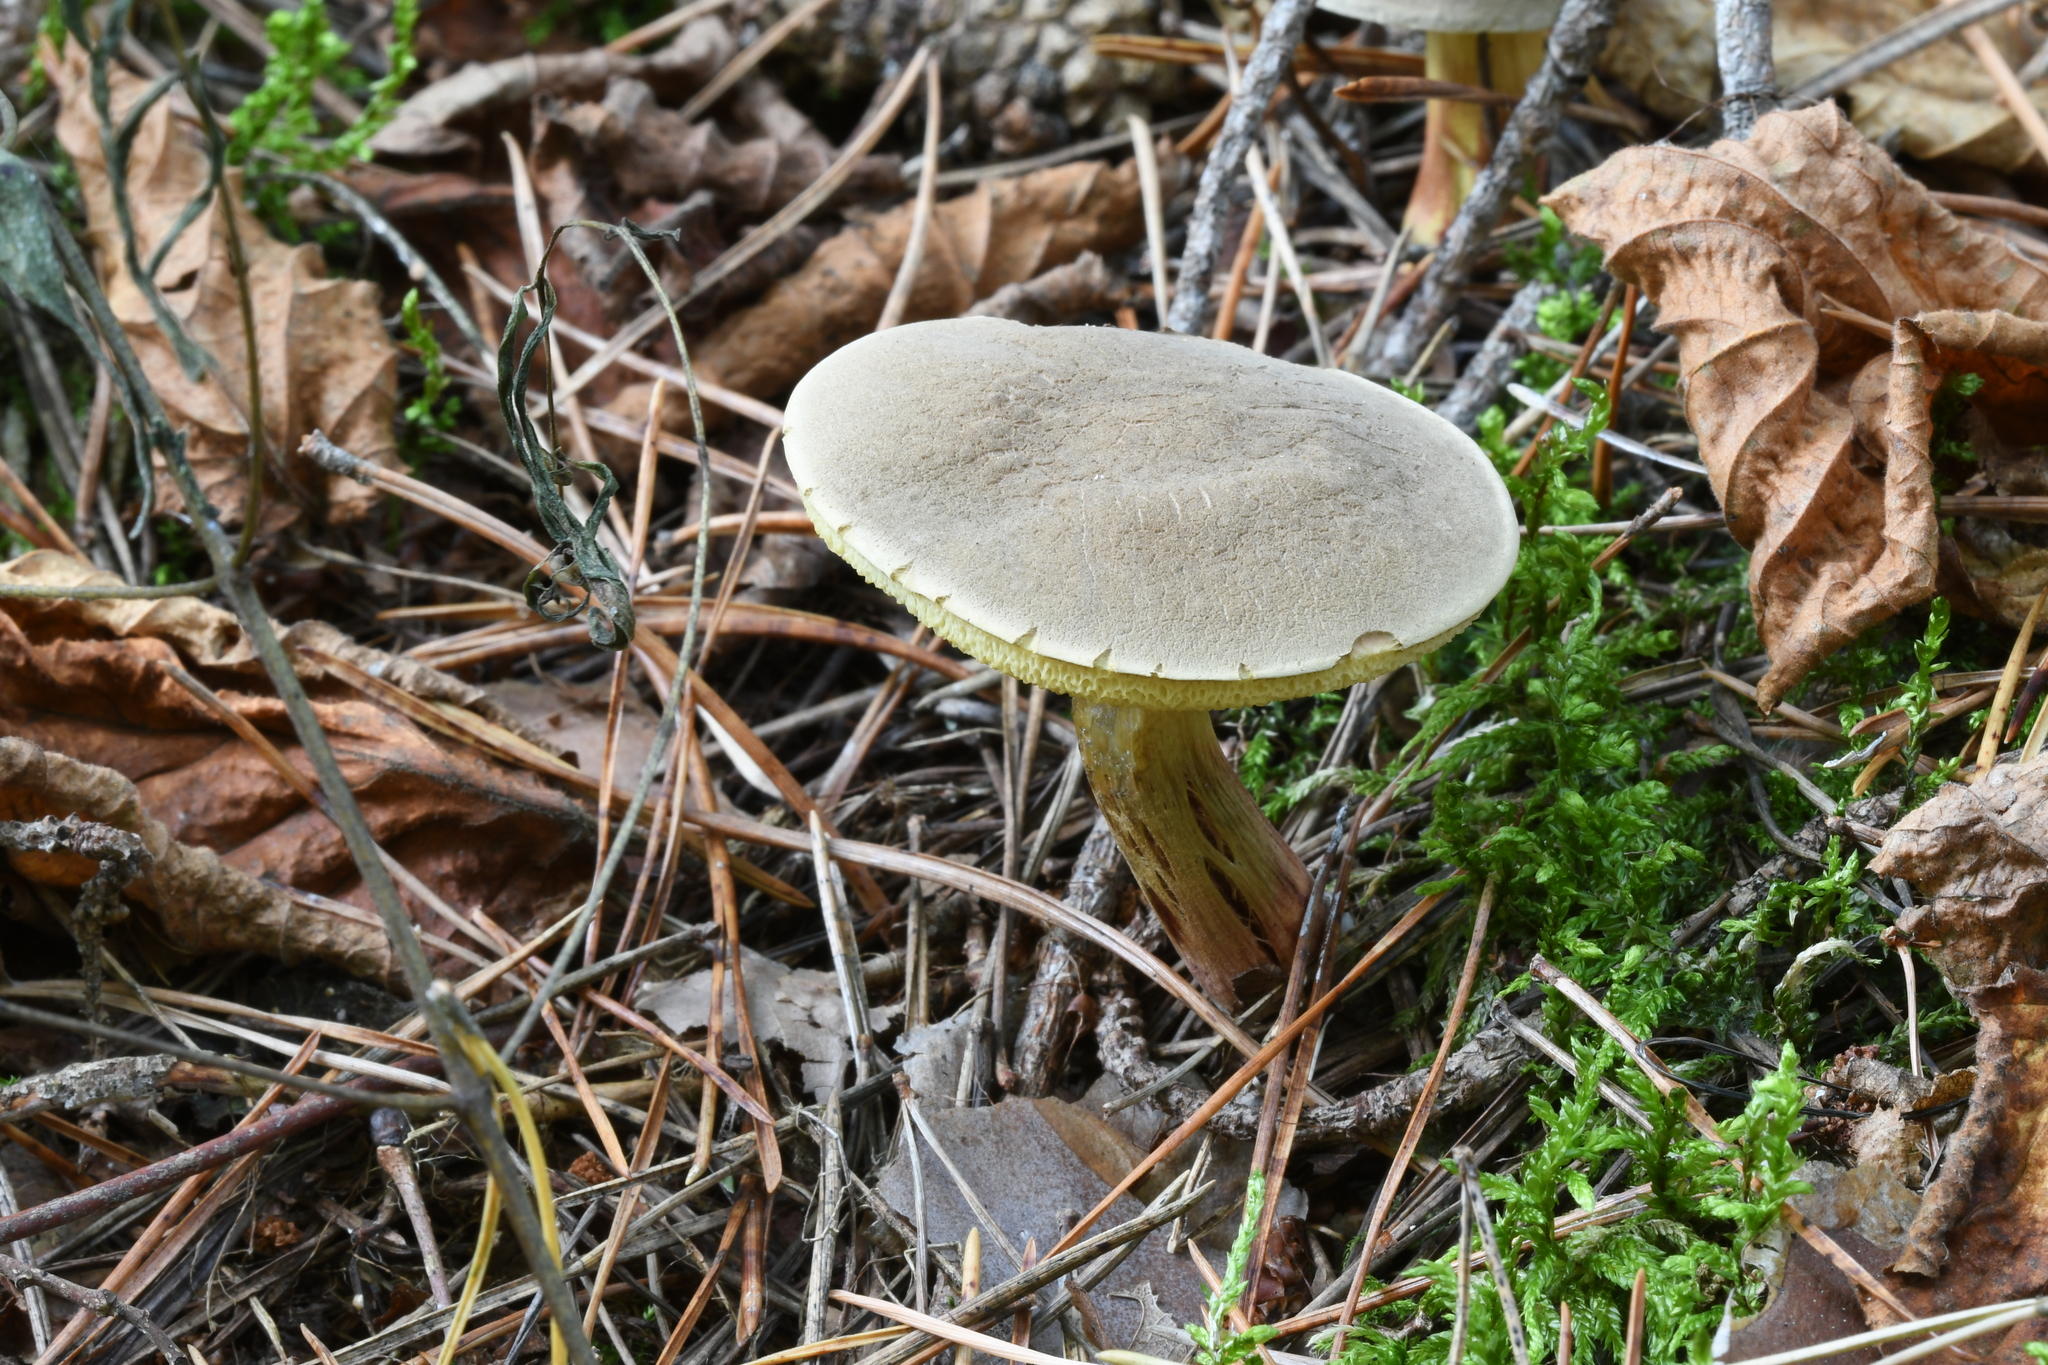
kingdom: Fungi
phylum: Basidiomycota
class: Agaricomycetes
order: Boletales
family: Boletaceae
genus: Xerocomus
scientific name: Xerocomus subtomentosus
